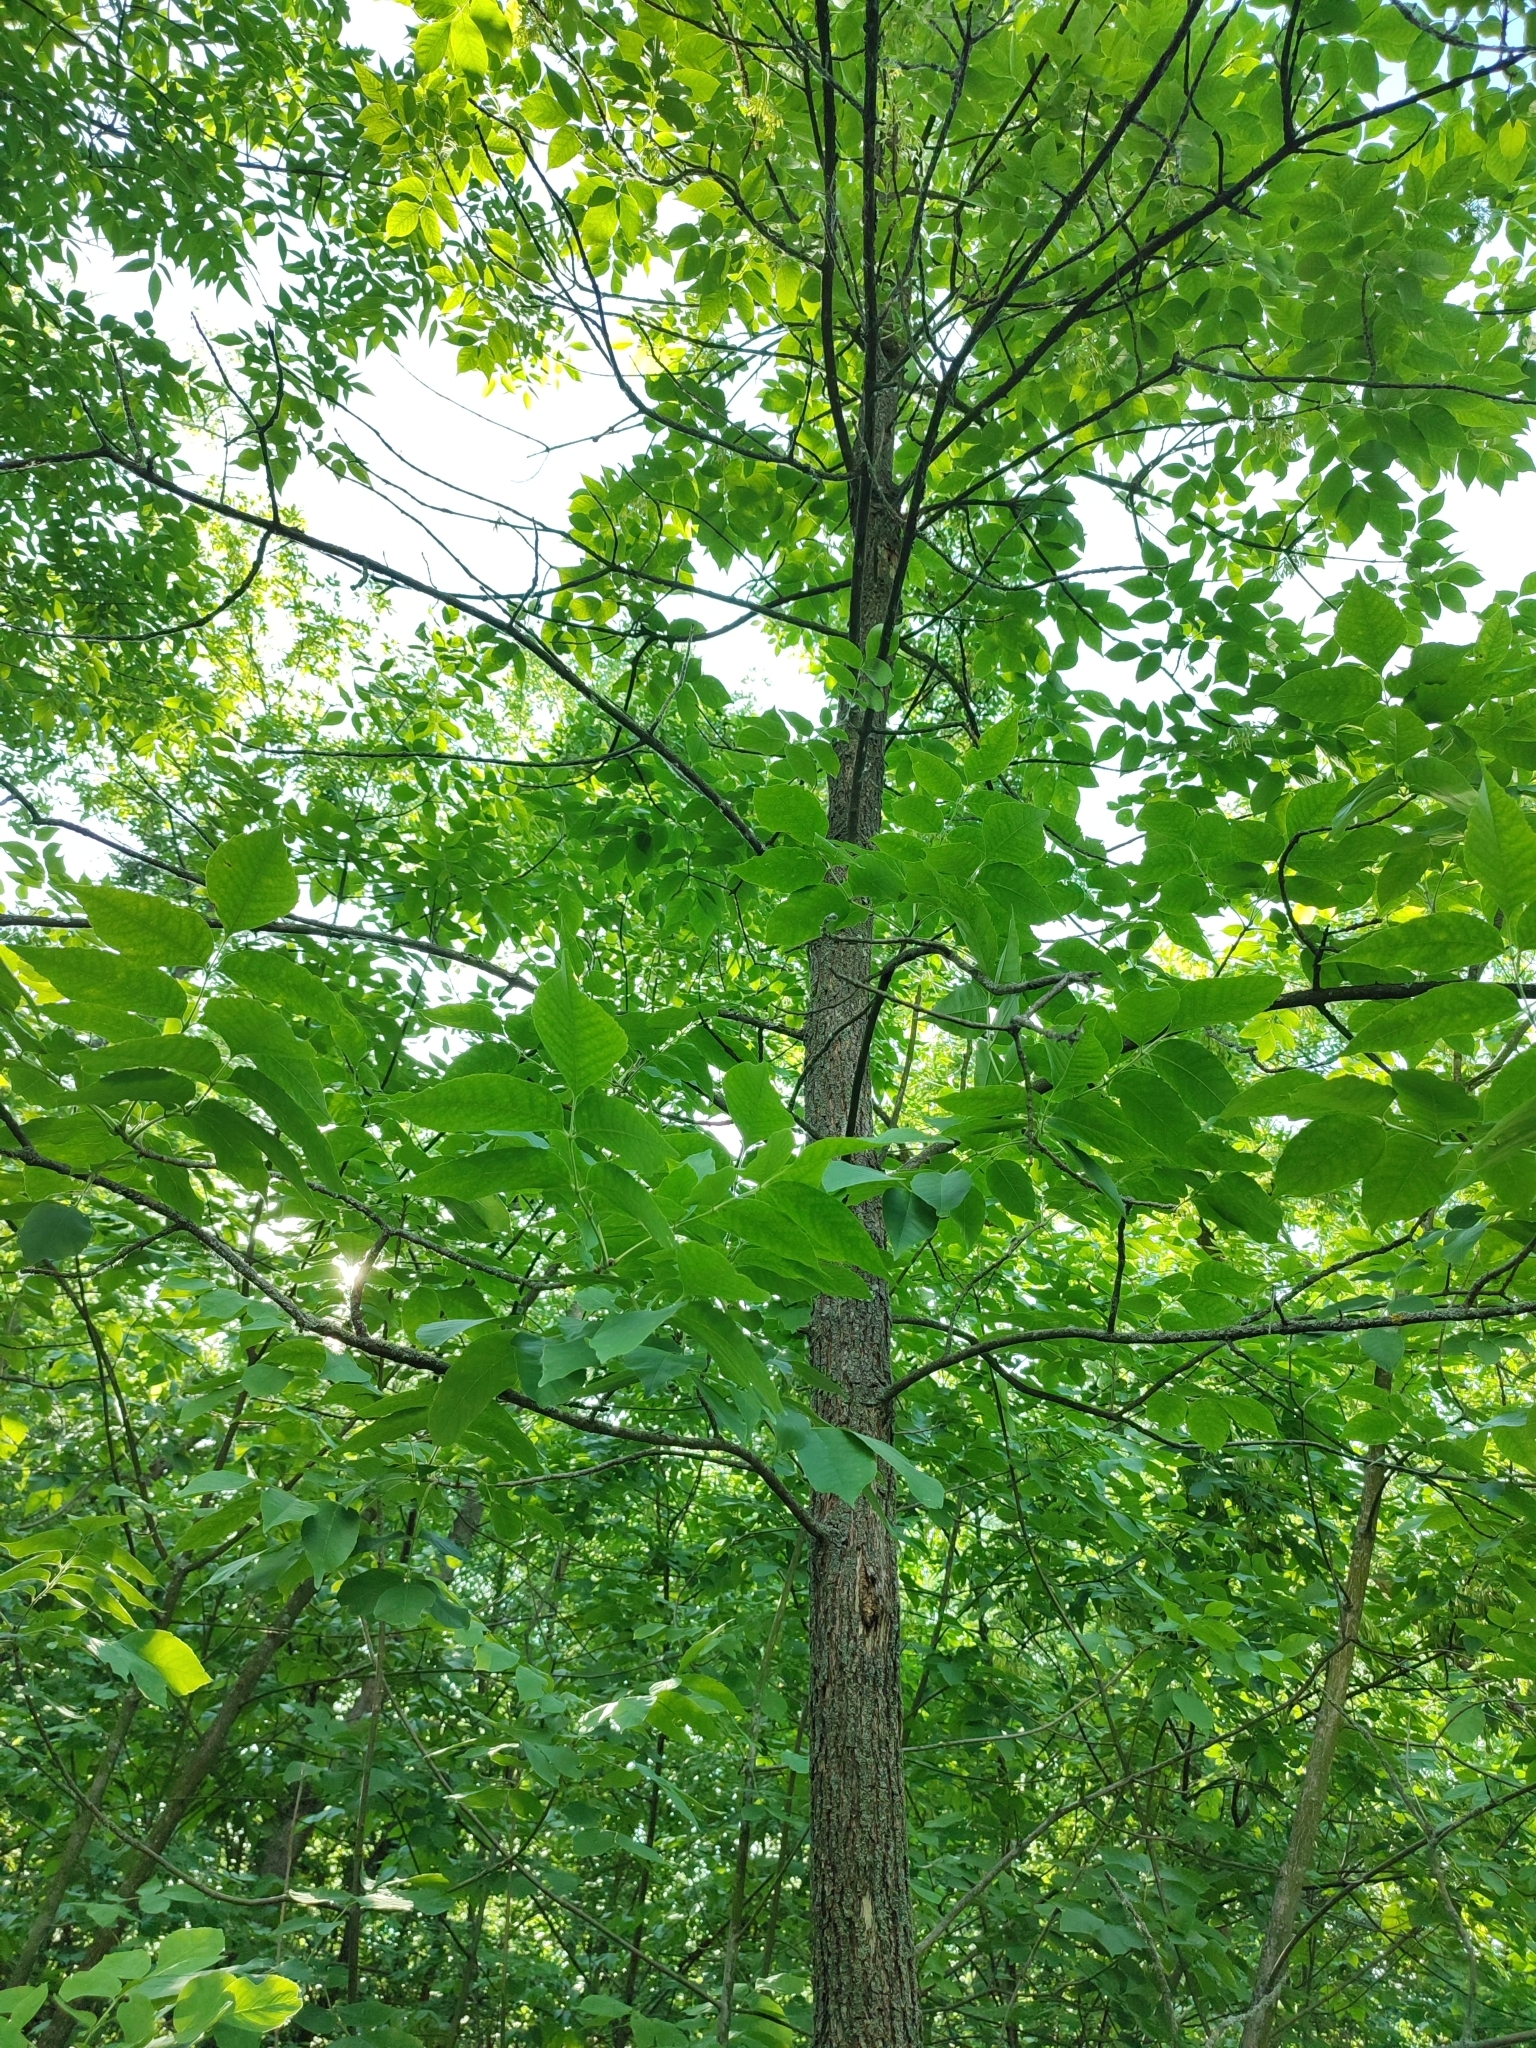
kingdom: Plantae
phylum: Tracheophyta
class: Magnoliopsida
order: Lamiales
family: Oleaceae
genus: Fraxinus
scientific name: Fraxinus pennsylvanica
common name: Green ash
